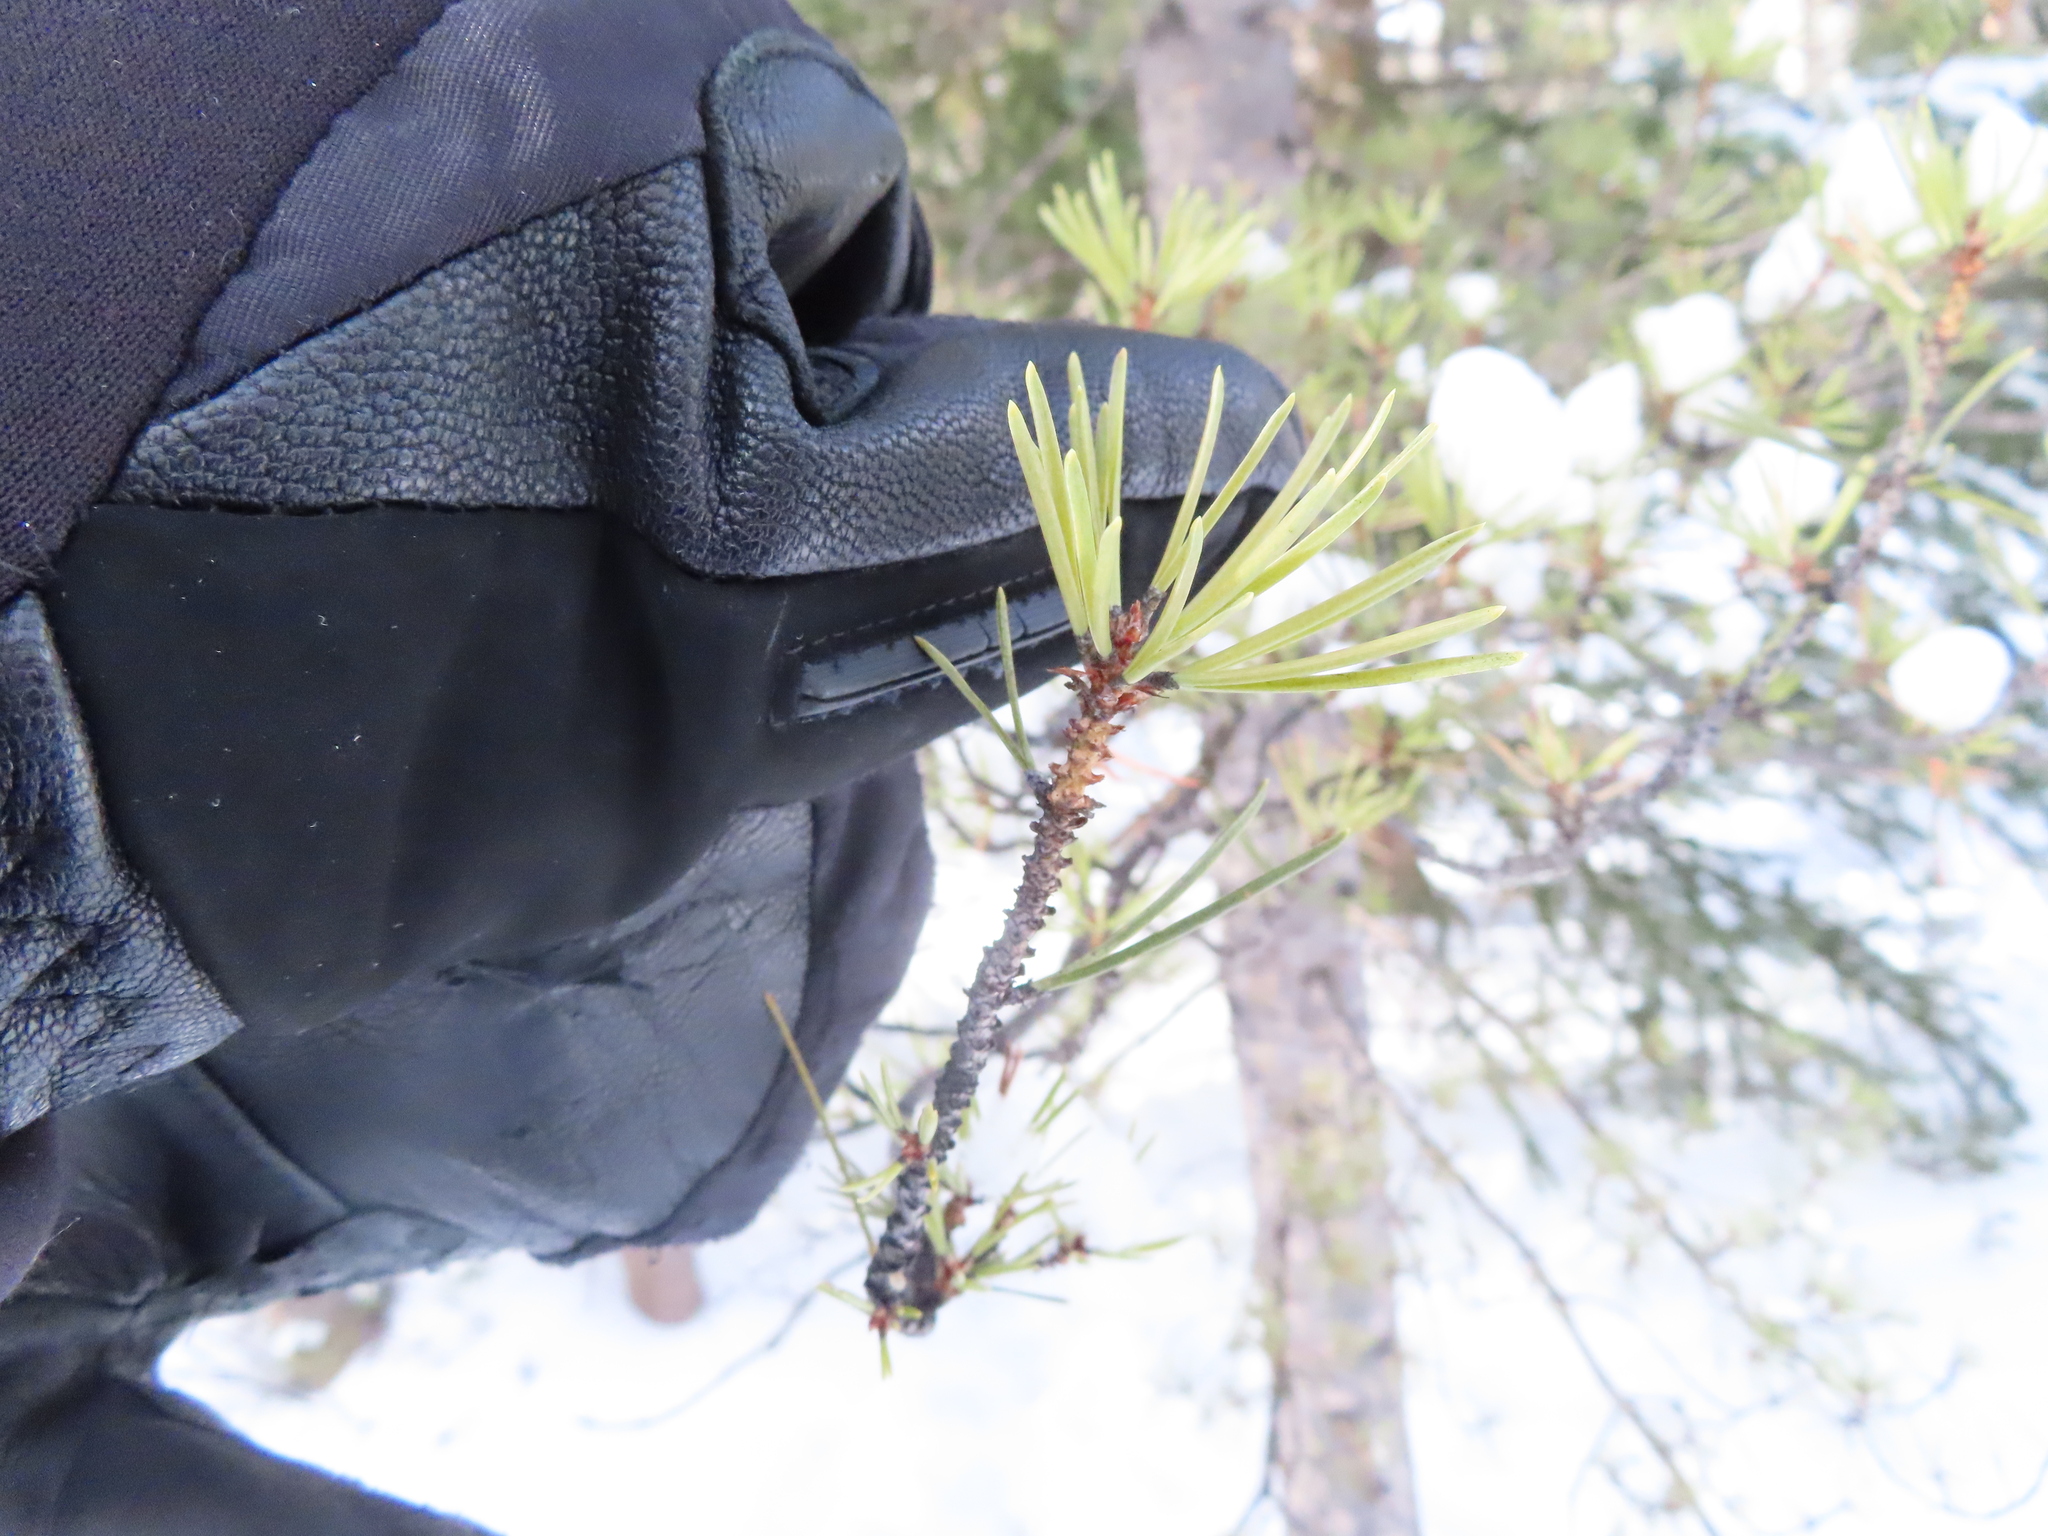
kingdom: Plantae
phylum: Tracheophyta
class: Pinopsida
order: Pinales
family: Pinaceae
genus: Pinus
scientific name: Pinus contorta
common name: Lodgepole pine
